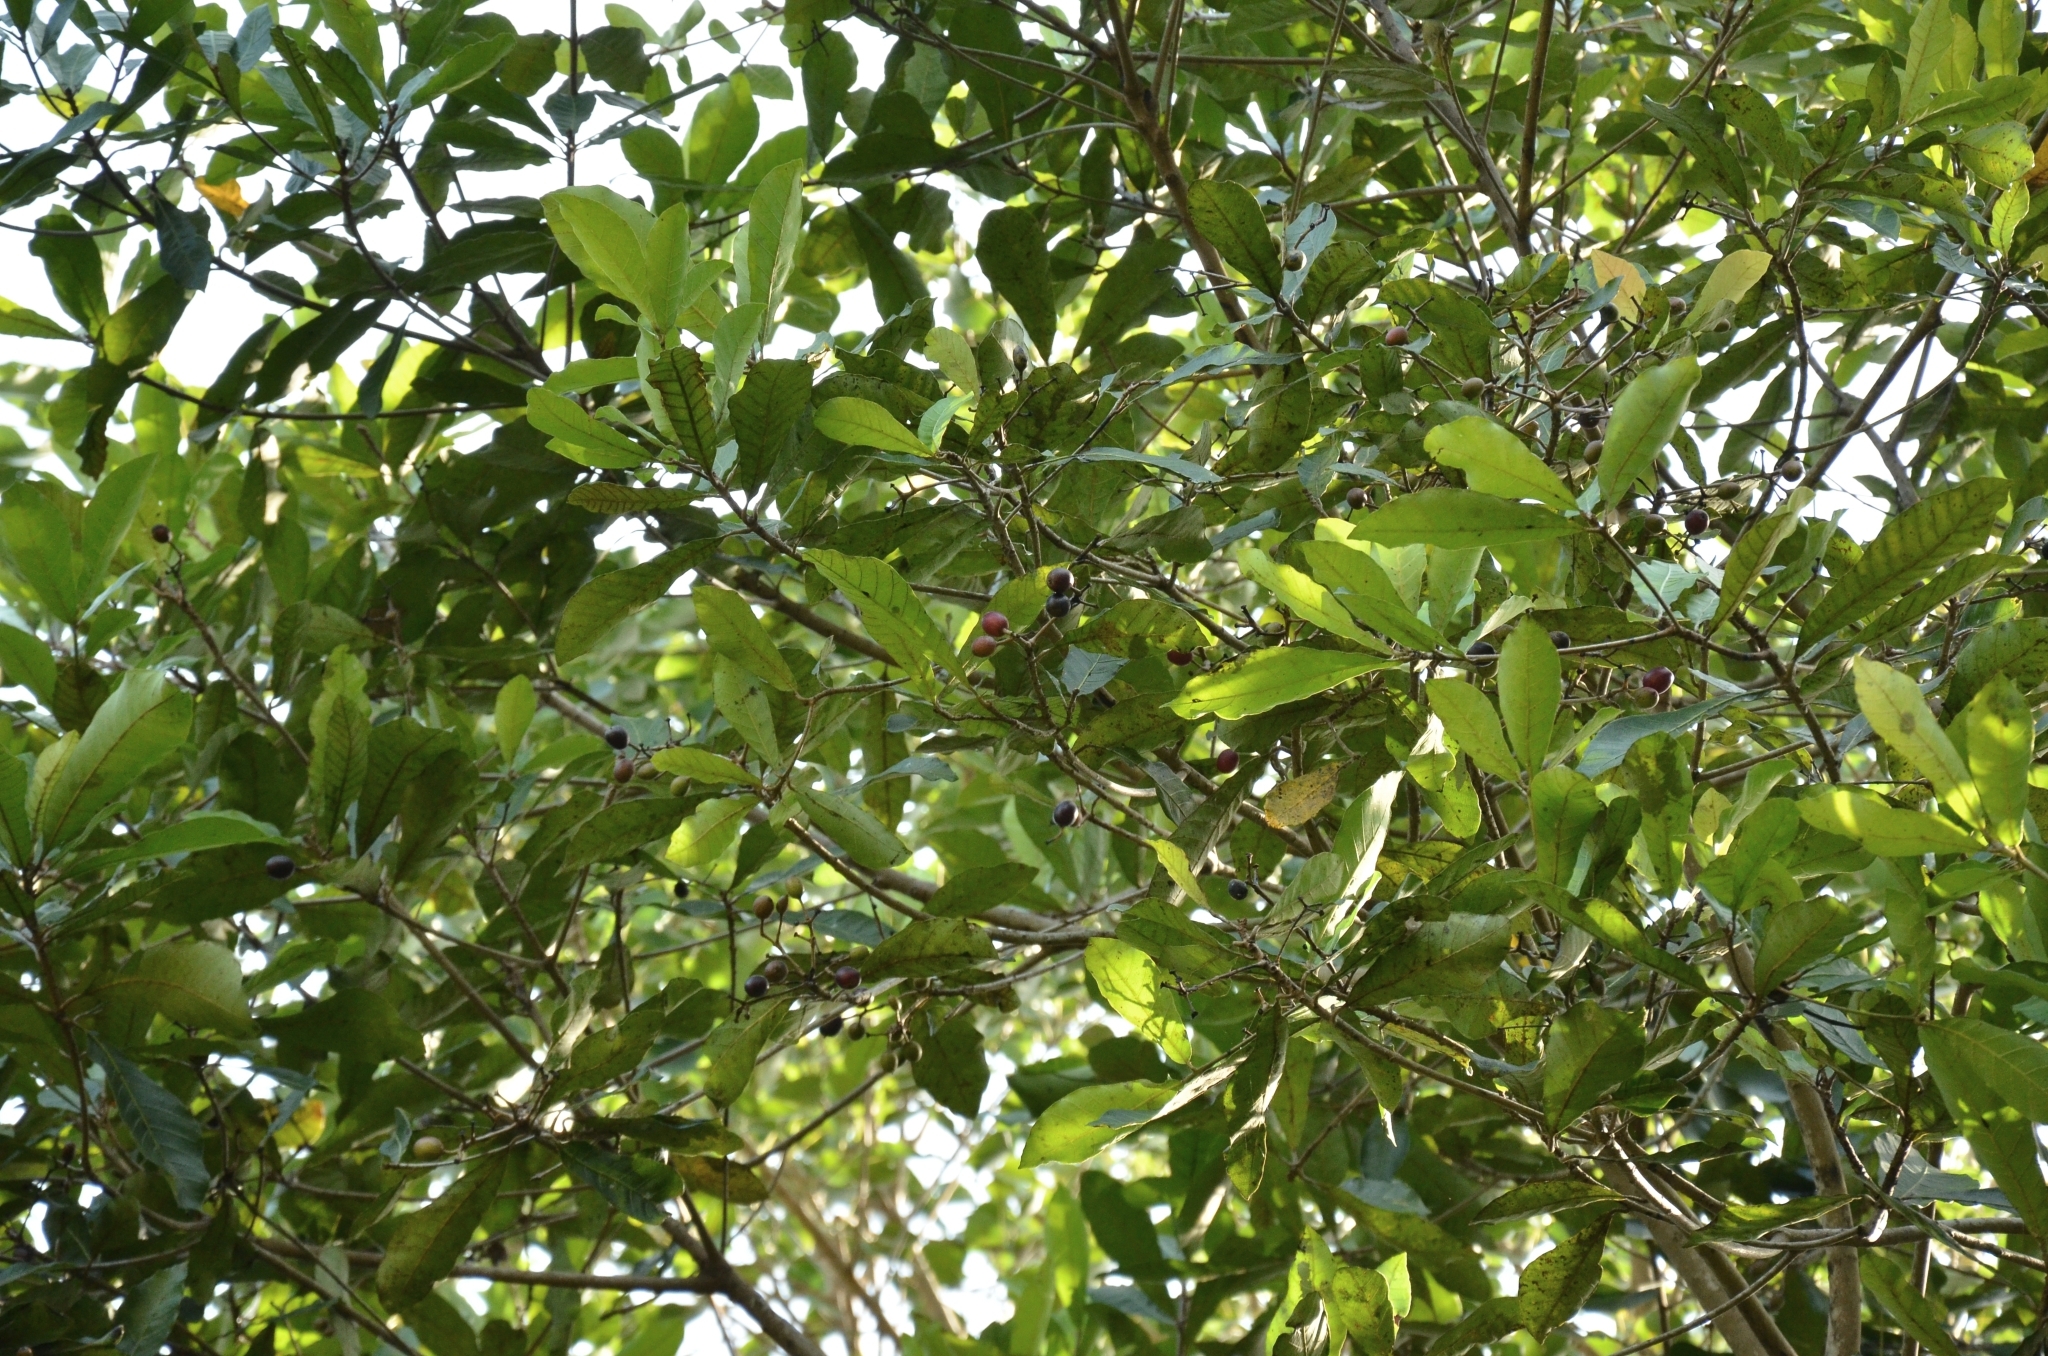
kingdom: Plantae
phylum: Tracheophyta
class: Magnoliopsida
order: Sapindales
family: Anacardiaceae
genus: Holigarna
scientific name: Holigarna arnottiana
